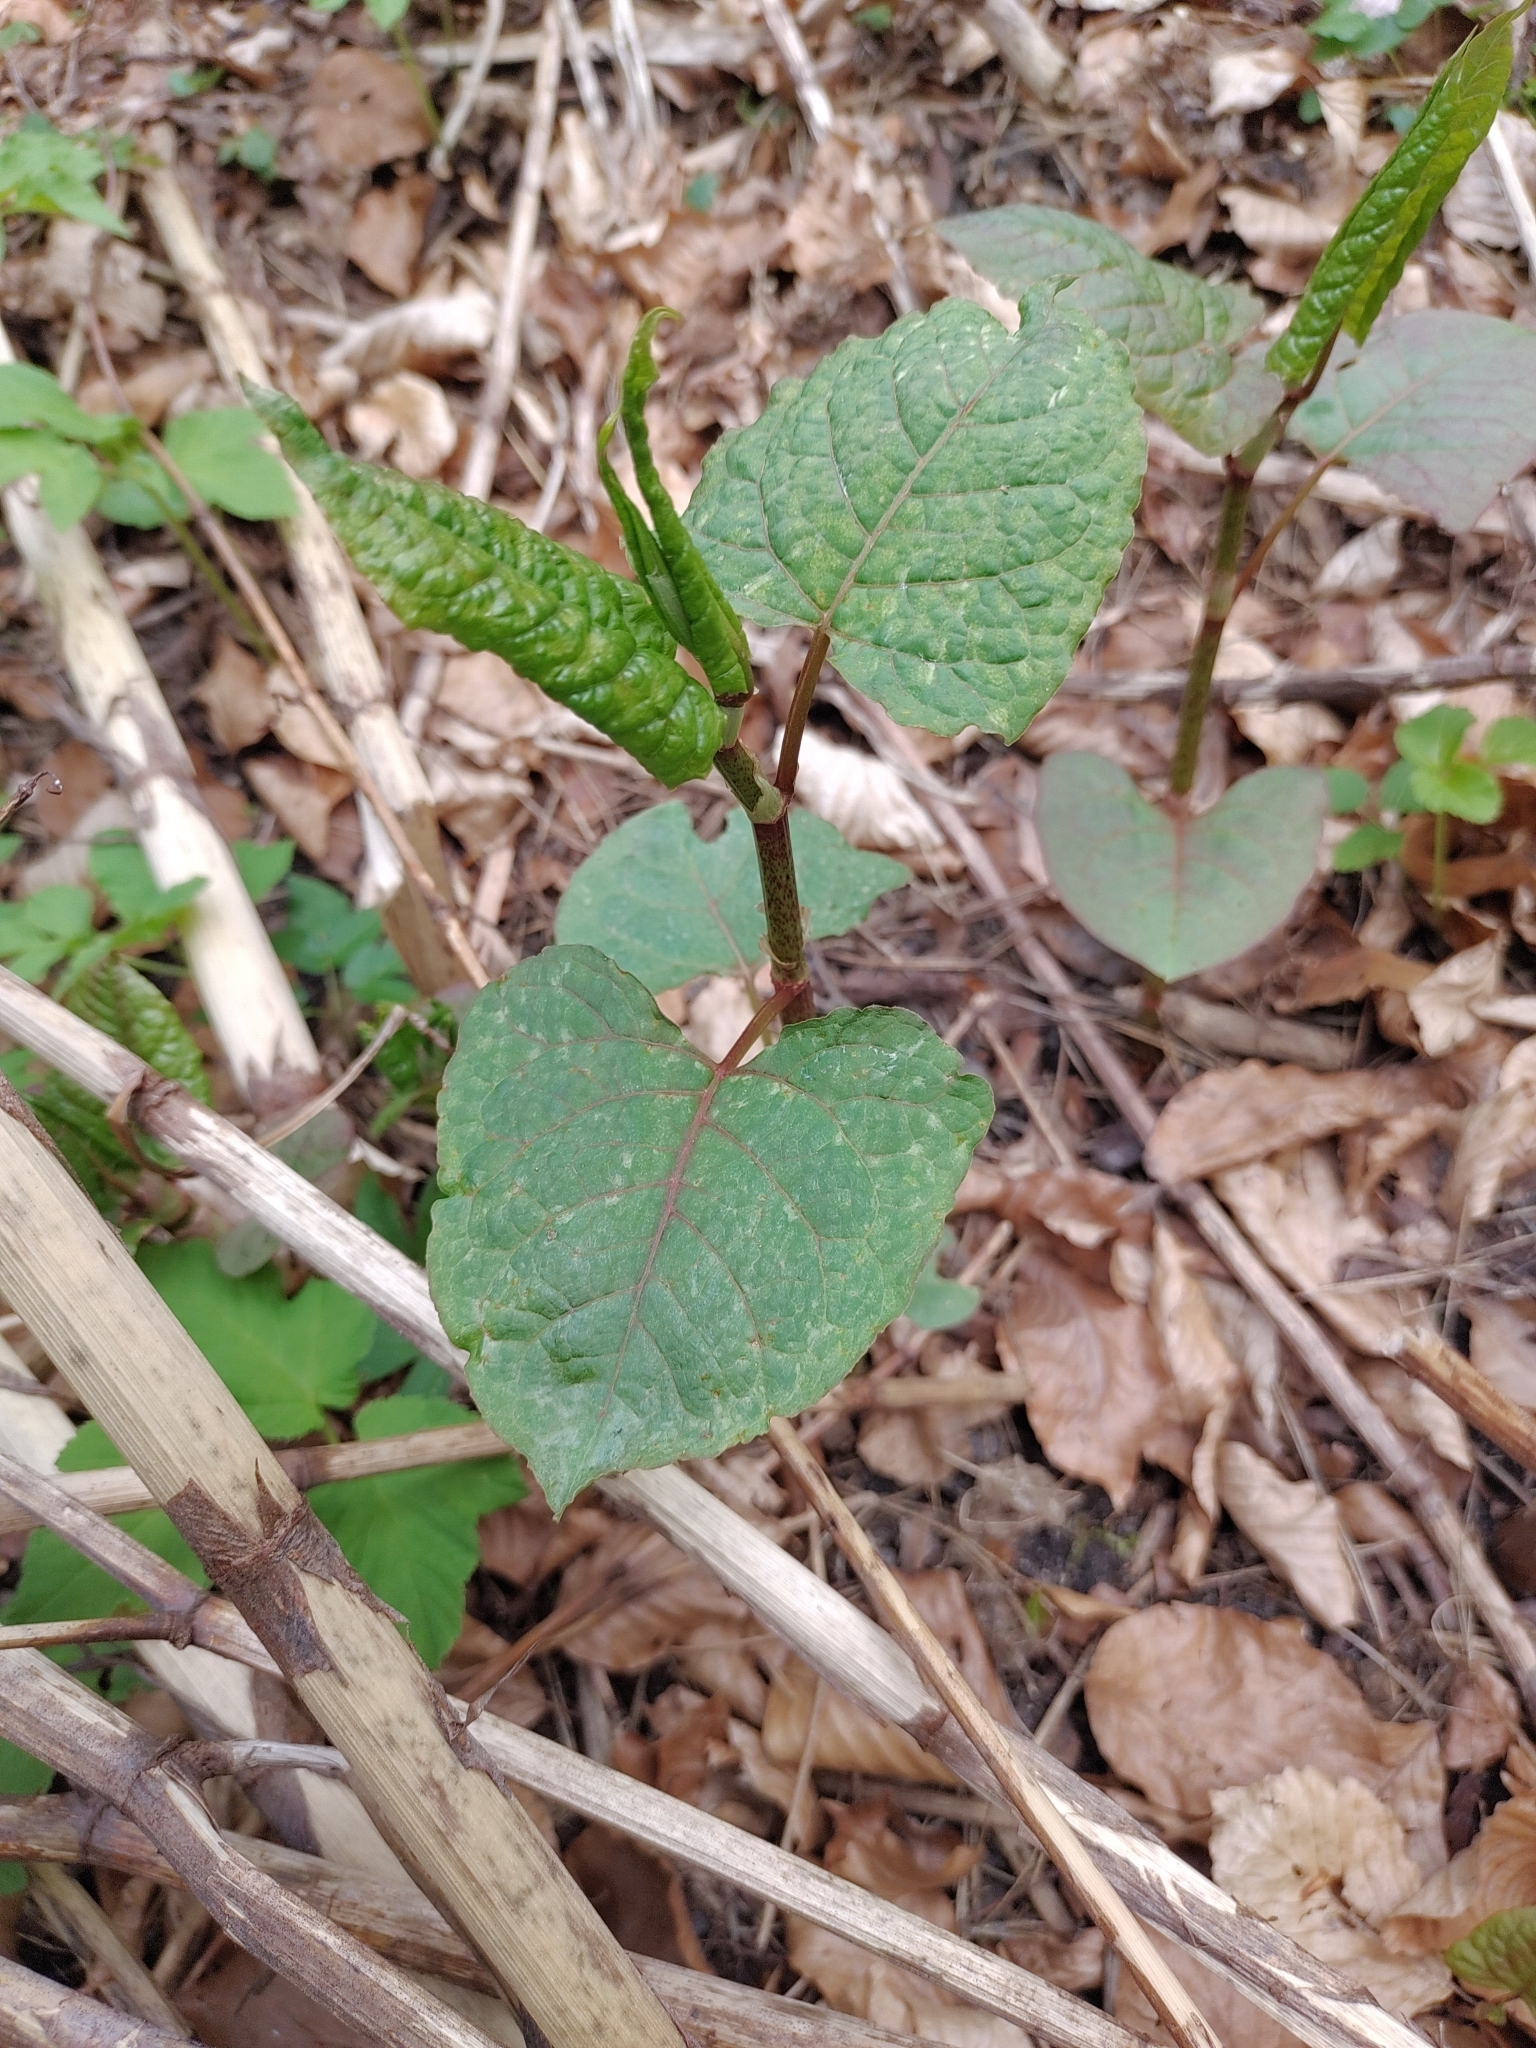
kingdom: Plantae
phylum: Tracheophyta
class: Magnoliopsida
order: Caryophyllales
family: Polygonaceae
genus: Reynoutria
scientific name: Reynoutria japonica
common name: Japanese knotweed
